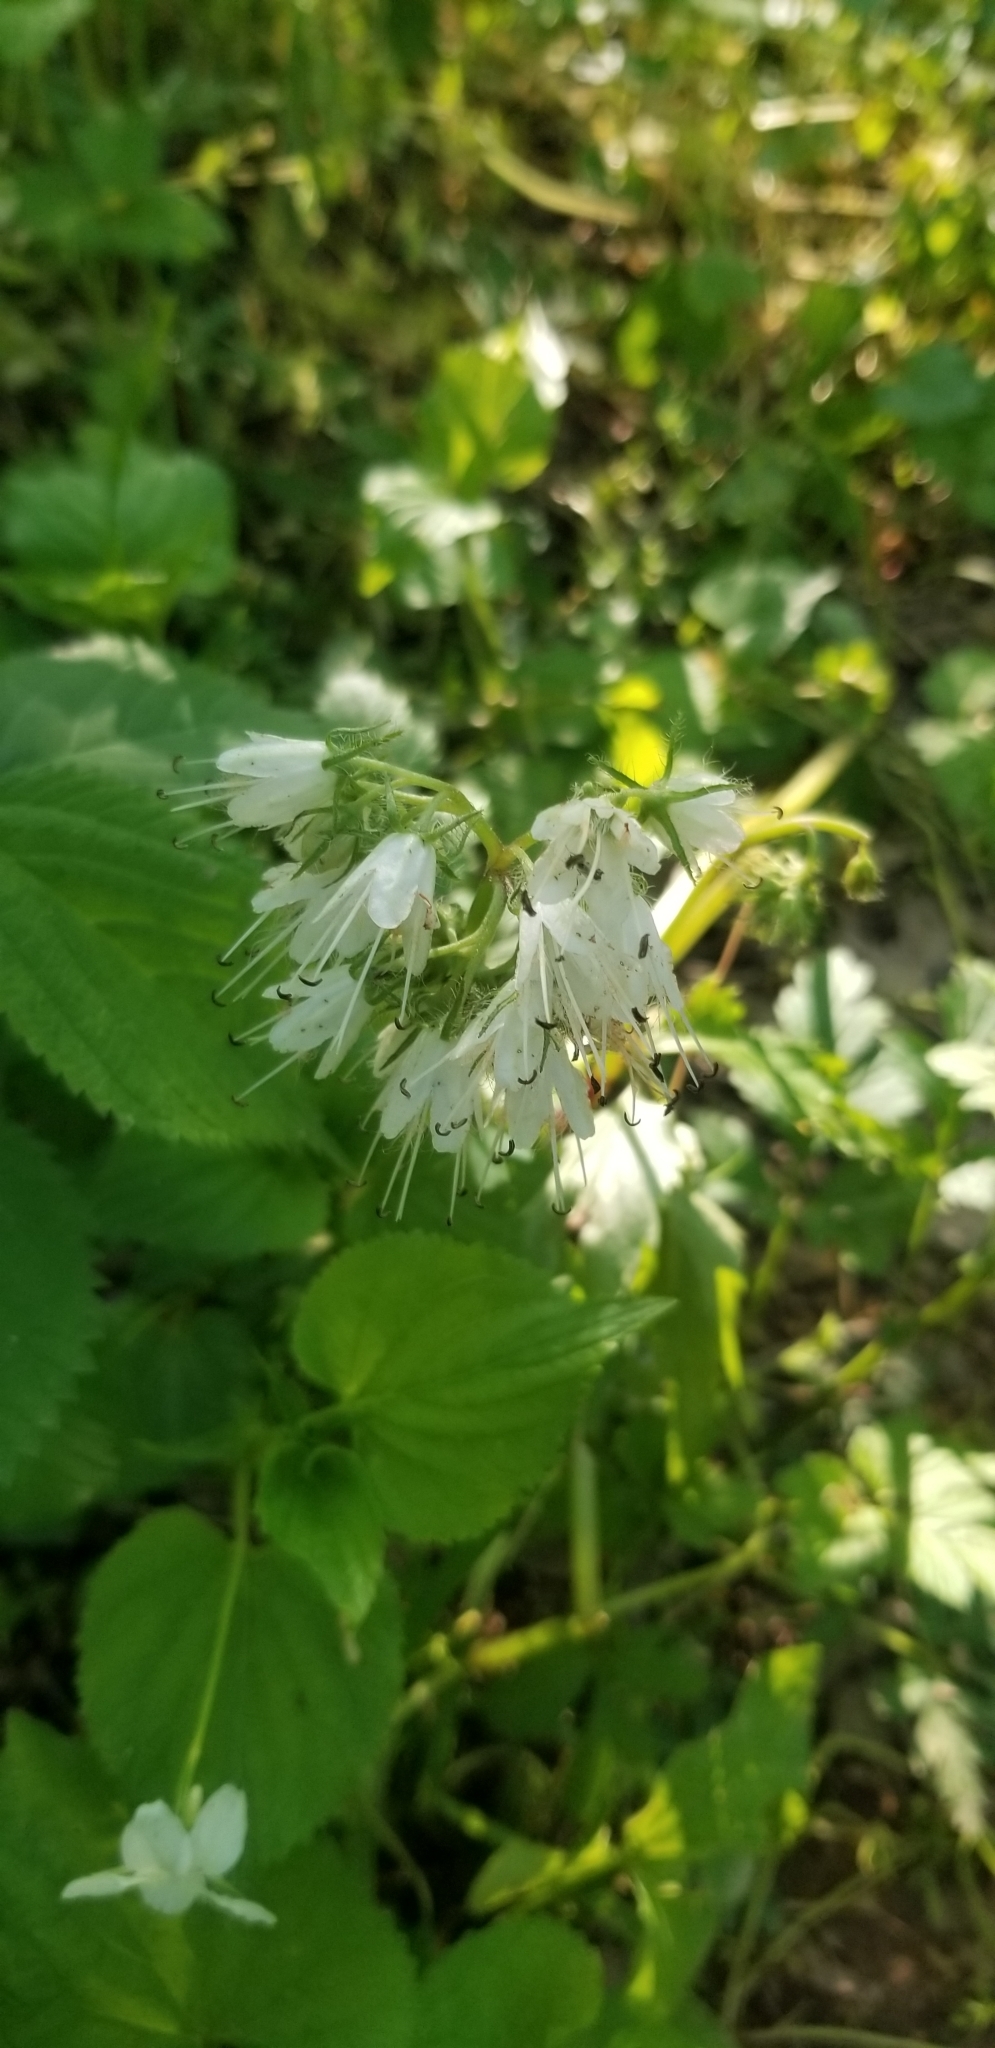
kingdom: Plantae
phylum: Tracheophyta
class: Magnoliopsida
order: Boraginales
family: Hydrophyllaceae
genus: Hydrophyllum
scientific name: Hydrophyllum virginianum
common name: Virginia waterleaf
